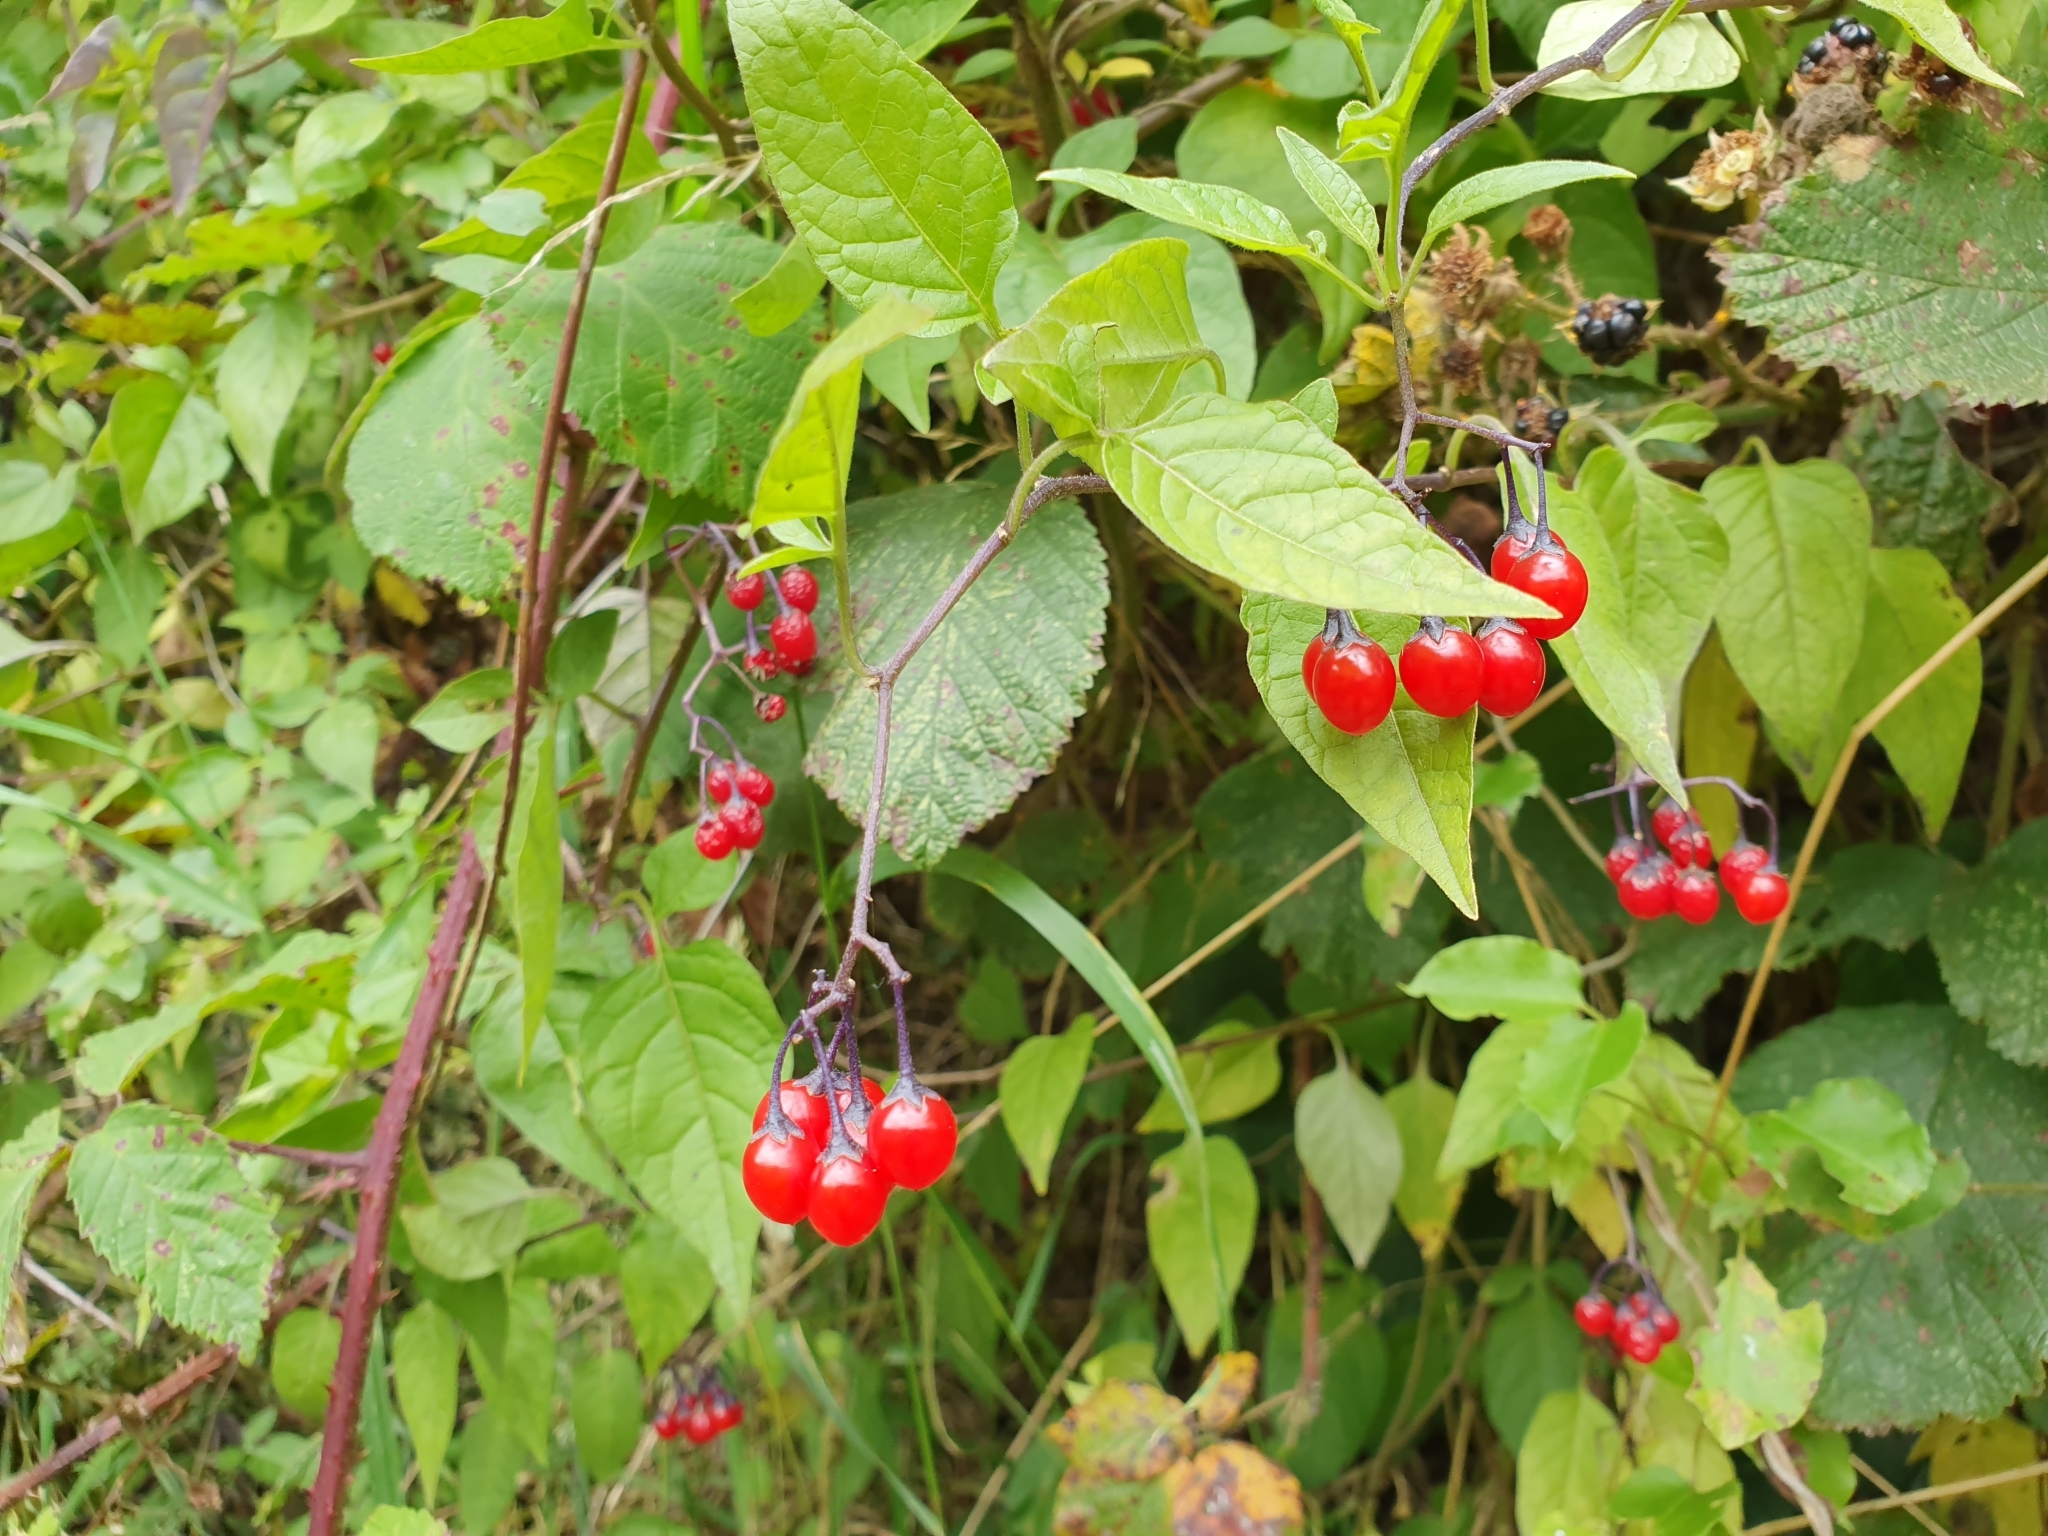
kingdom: Plantae
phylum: Tracheophyta
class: Magnoliopsida
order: Solanales
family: Solanaceae
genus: Solanum
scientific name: Solanum dulcamara
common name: Climbing nightshade
